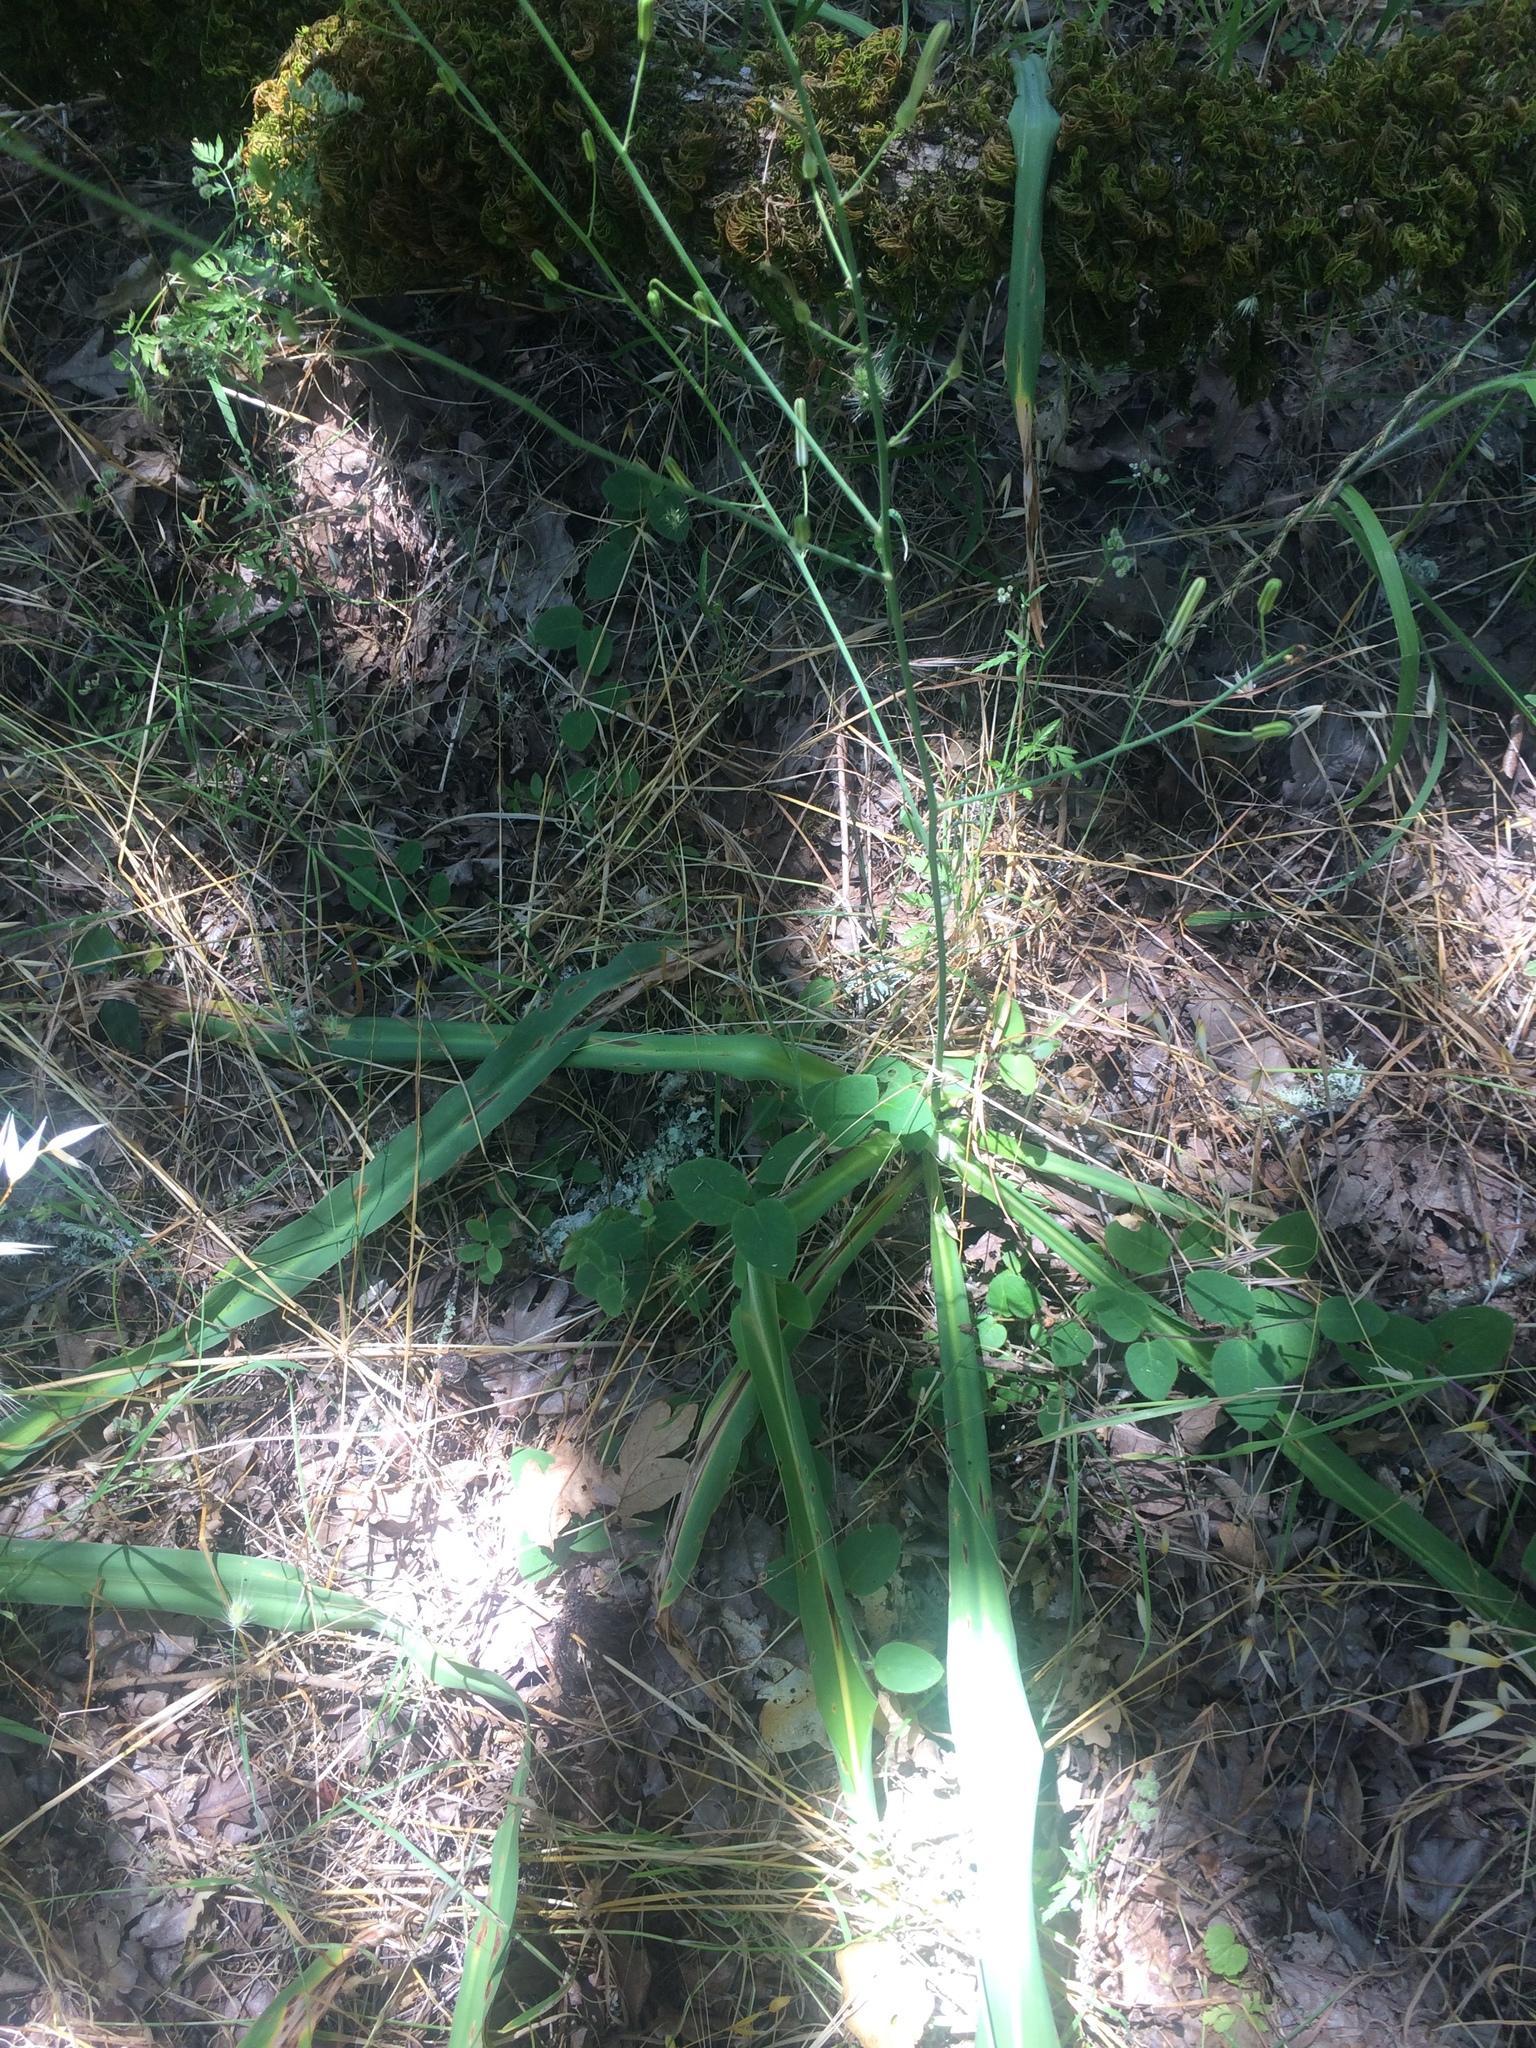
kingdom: Plantae
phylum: Tracheophyta
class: Liliopsida
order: Asparagales
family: Asparagaceae
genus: Chlorogalum
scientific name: Chlorogalum pomeridianum
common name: Amole
